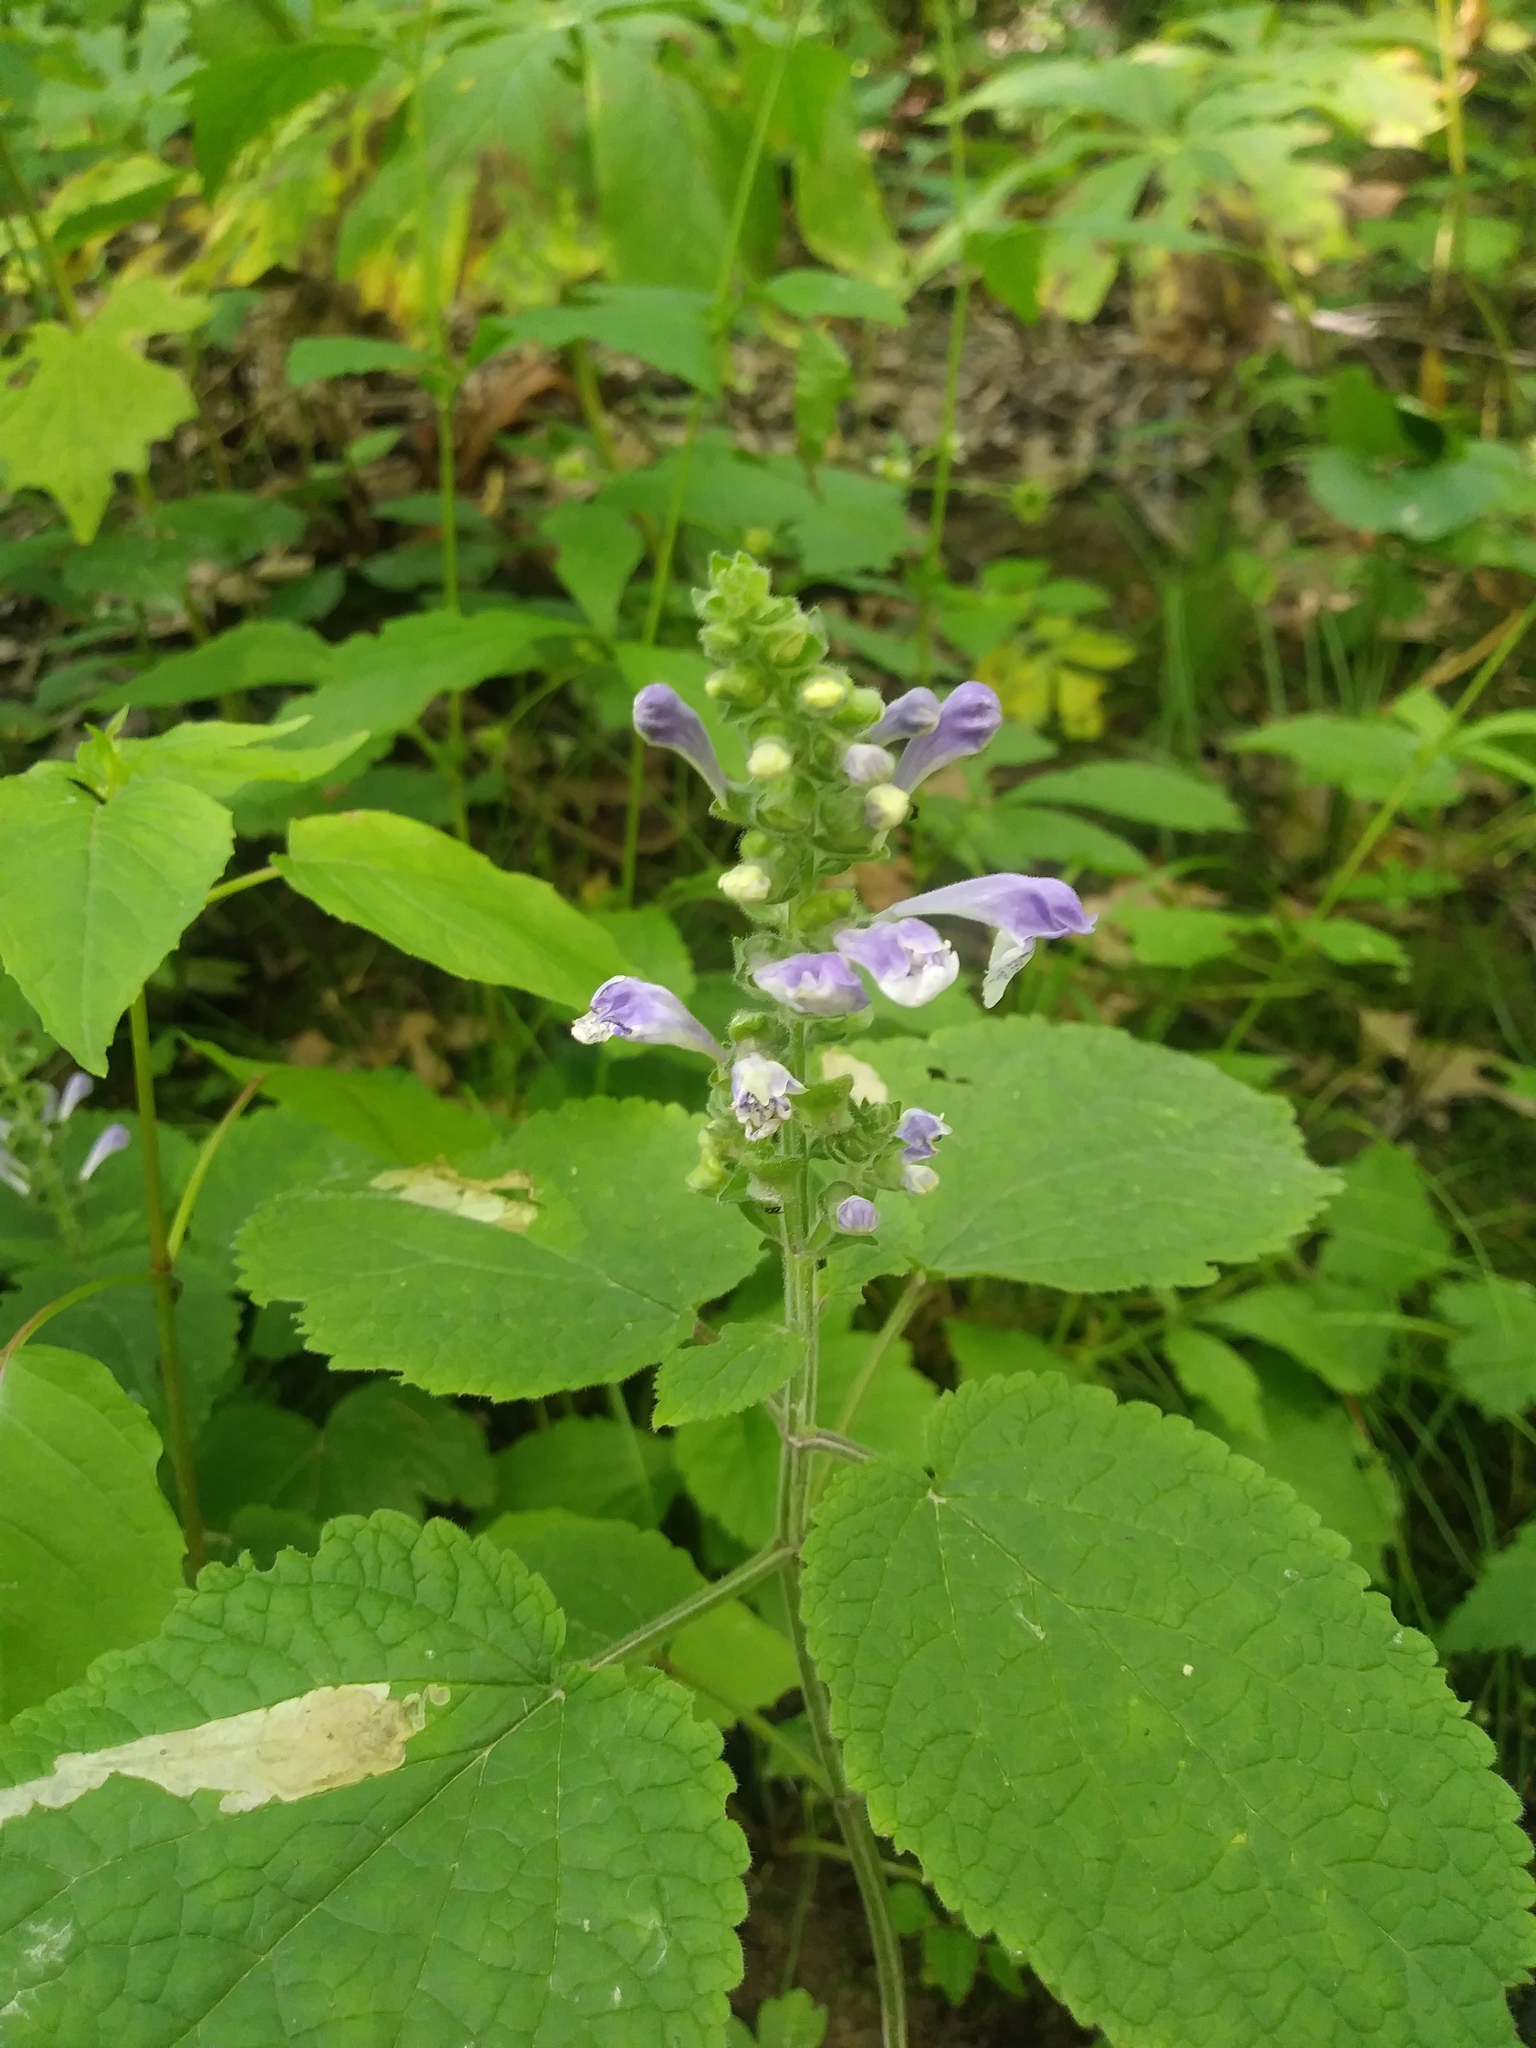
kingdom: Plantae
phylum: Tracheophyta
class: Magnoliopsida
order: Lamiales
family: Lamiaceae
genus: Scutellaria
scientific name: Scutellaria ovata
